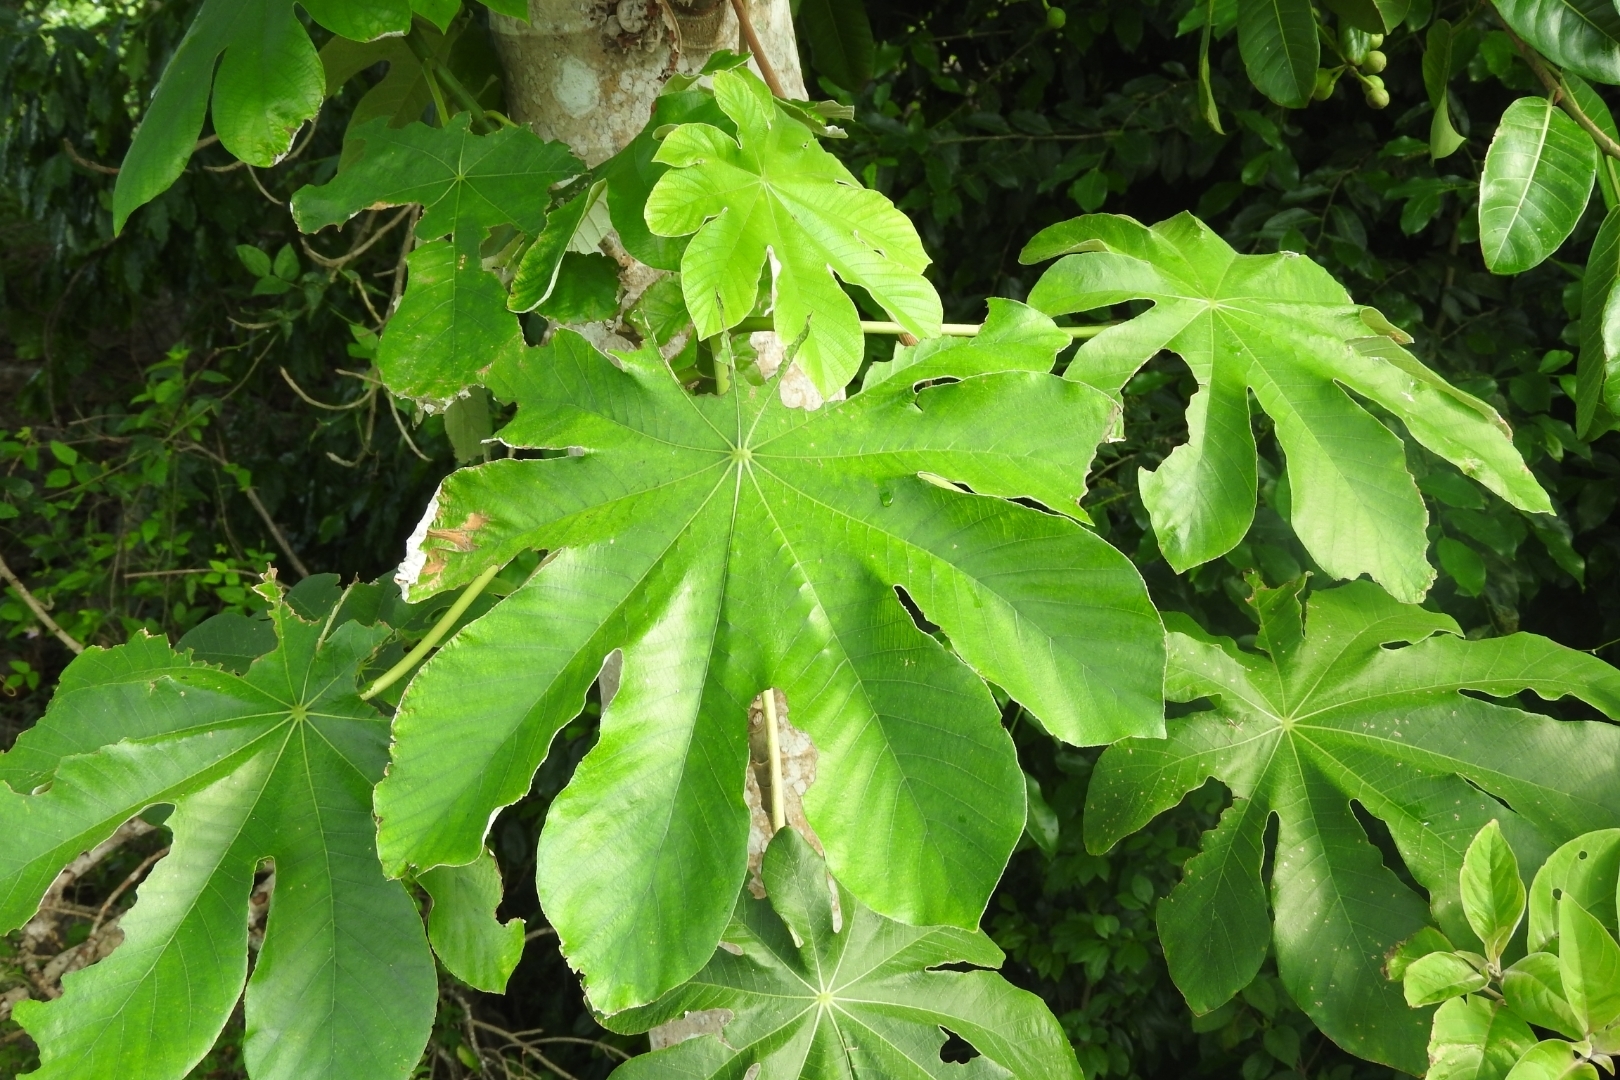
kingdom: Plantae
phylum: Tracheophyta
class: Magnoliopsida
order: Rosales
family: Urticaceae
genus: Cecropia
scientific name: Cecropia peltata
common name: Trumpet-tree
